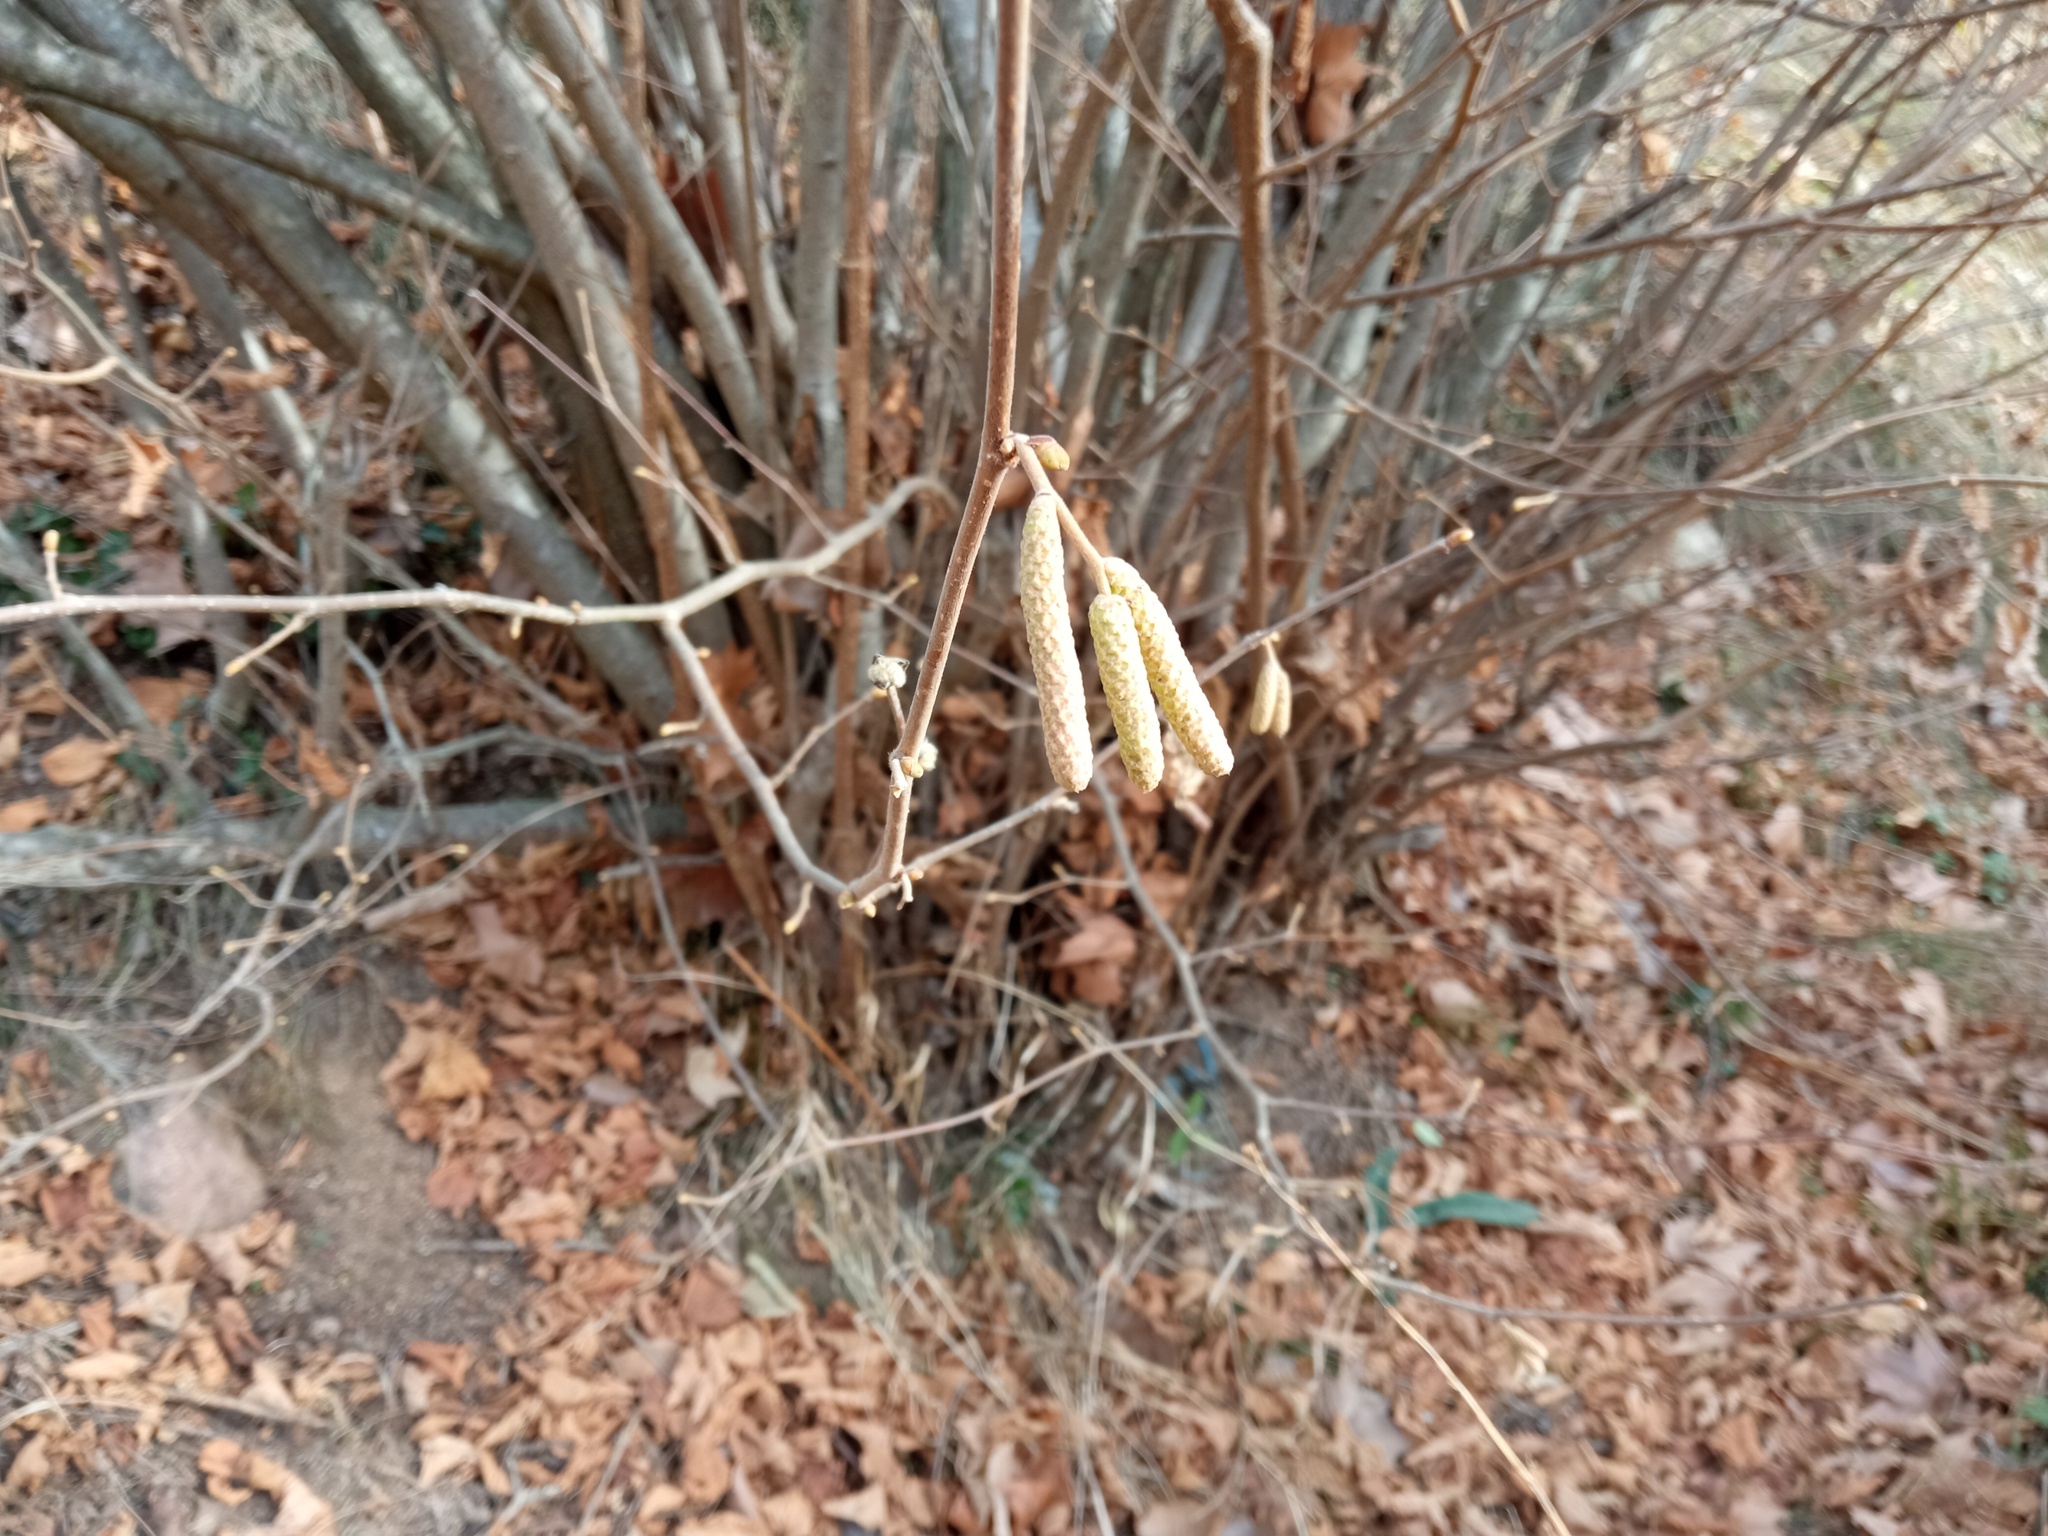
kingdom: Plantae
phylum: Tracheophyta
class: Magnoliopsida
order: Fagales
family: Betulaceae
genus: Corylus
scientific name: Corylus avellana
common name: European hazel
